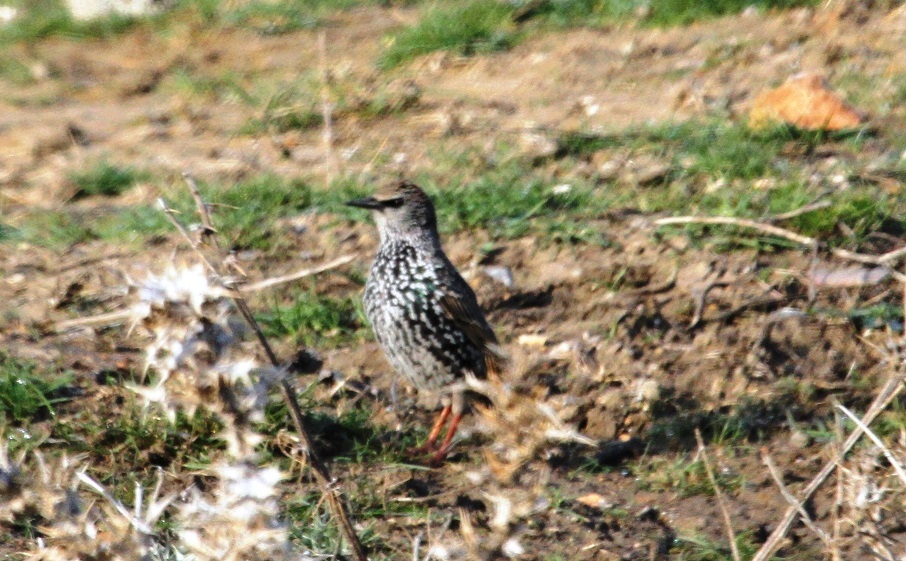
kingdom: Animalia
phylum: Chordata
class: Aves
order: Passeriformes
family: Sturnidae
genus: Sturnus
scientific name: Sturnus vulgaris
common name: Common starling
